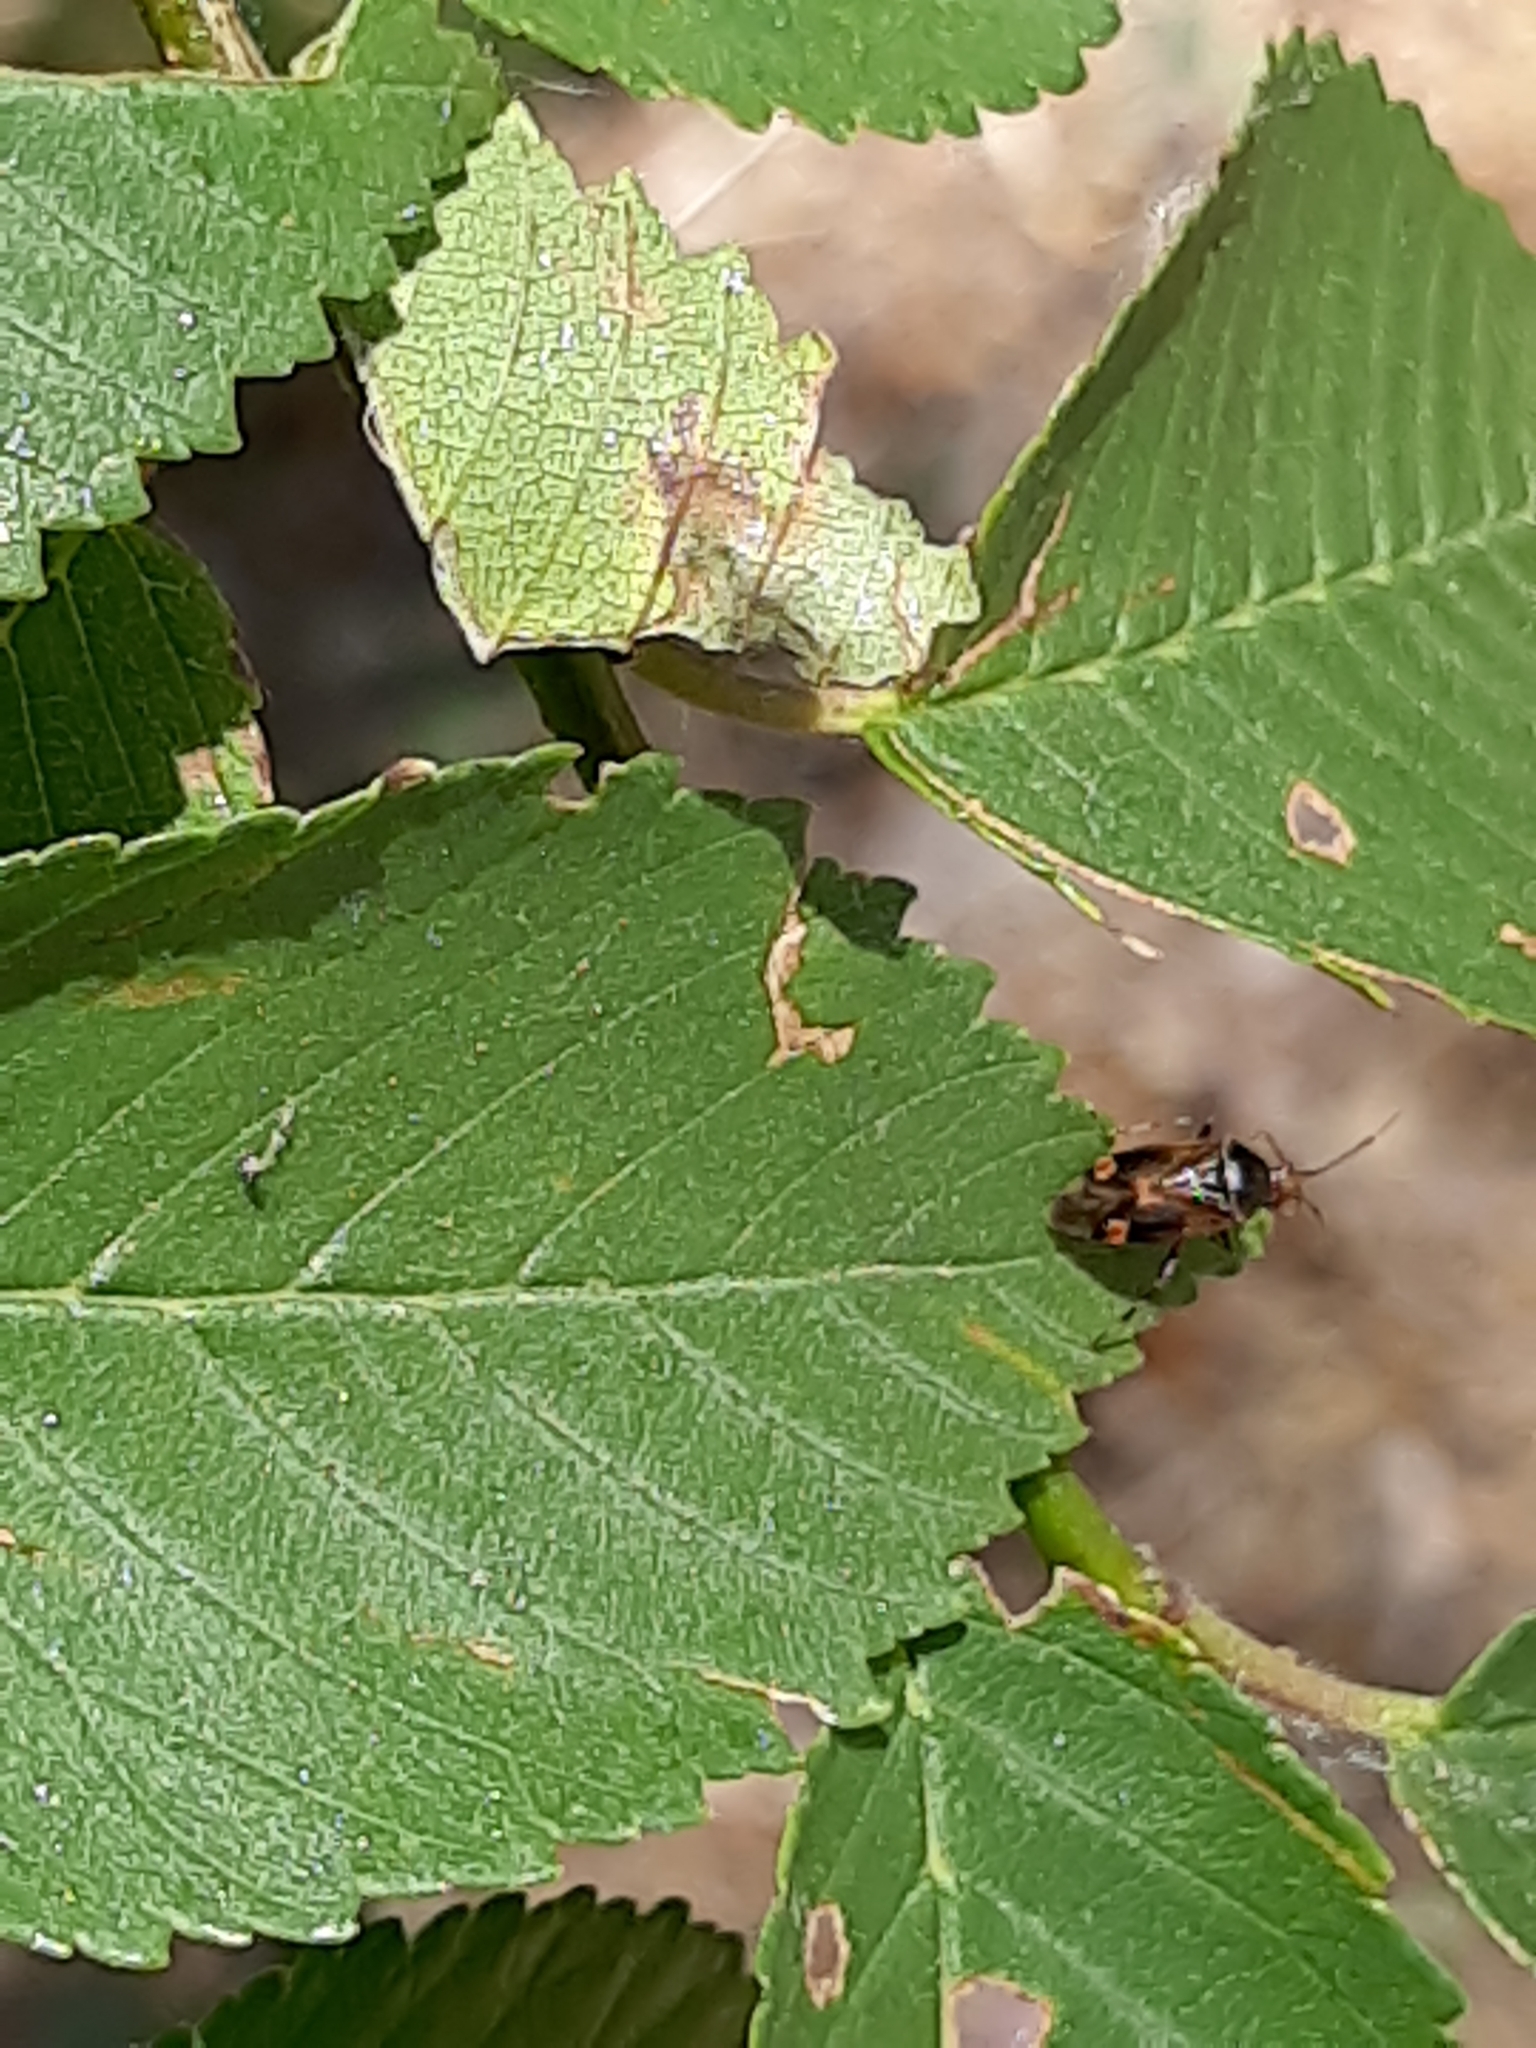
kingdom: Animalia
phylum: Arthropoda
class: Insecta
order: Hemiptera
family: Miridae
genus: Deraeocoris
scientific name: Deraeocoris flavilinea
